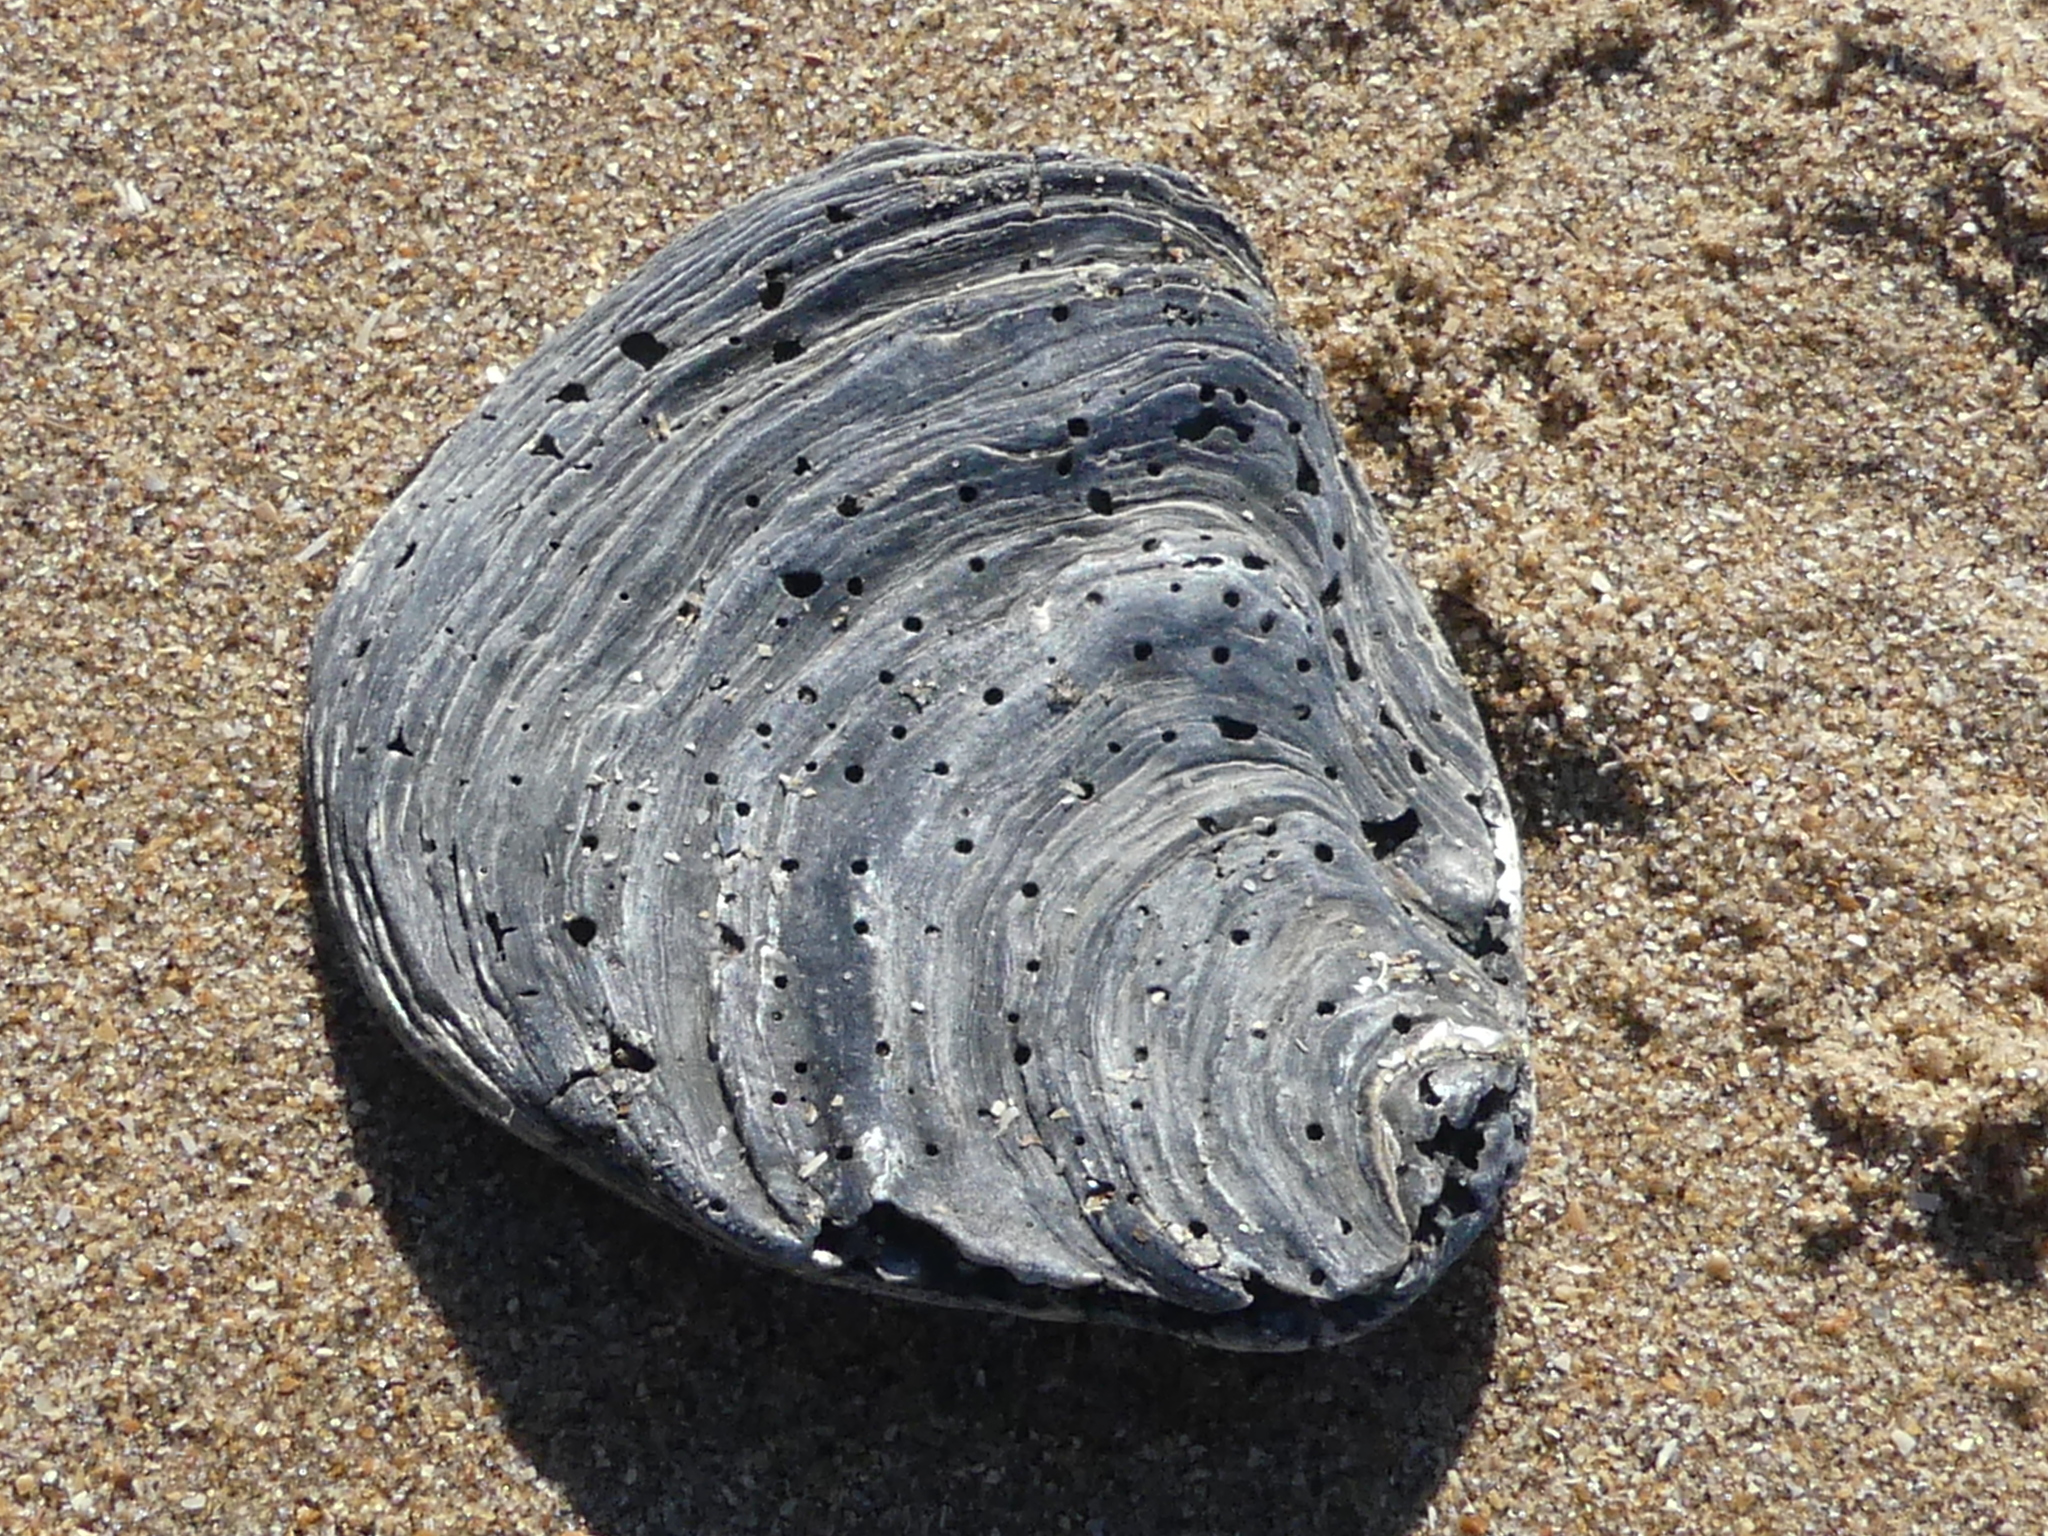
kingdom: Animalia
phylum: Mollusca
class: Bivalvia
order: Ostreida
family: Ostreidae
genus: Ostrea
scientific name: Ostrea edulis
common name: Flat oyster
